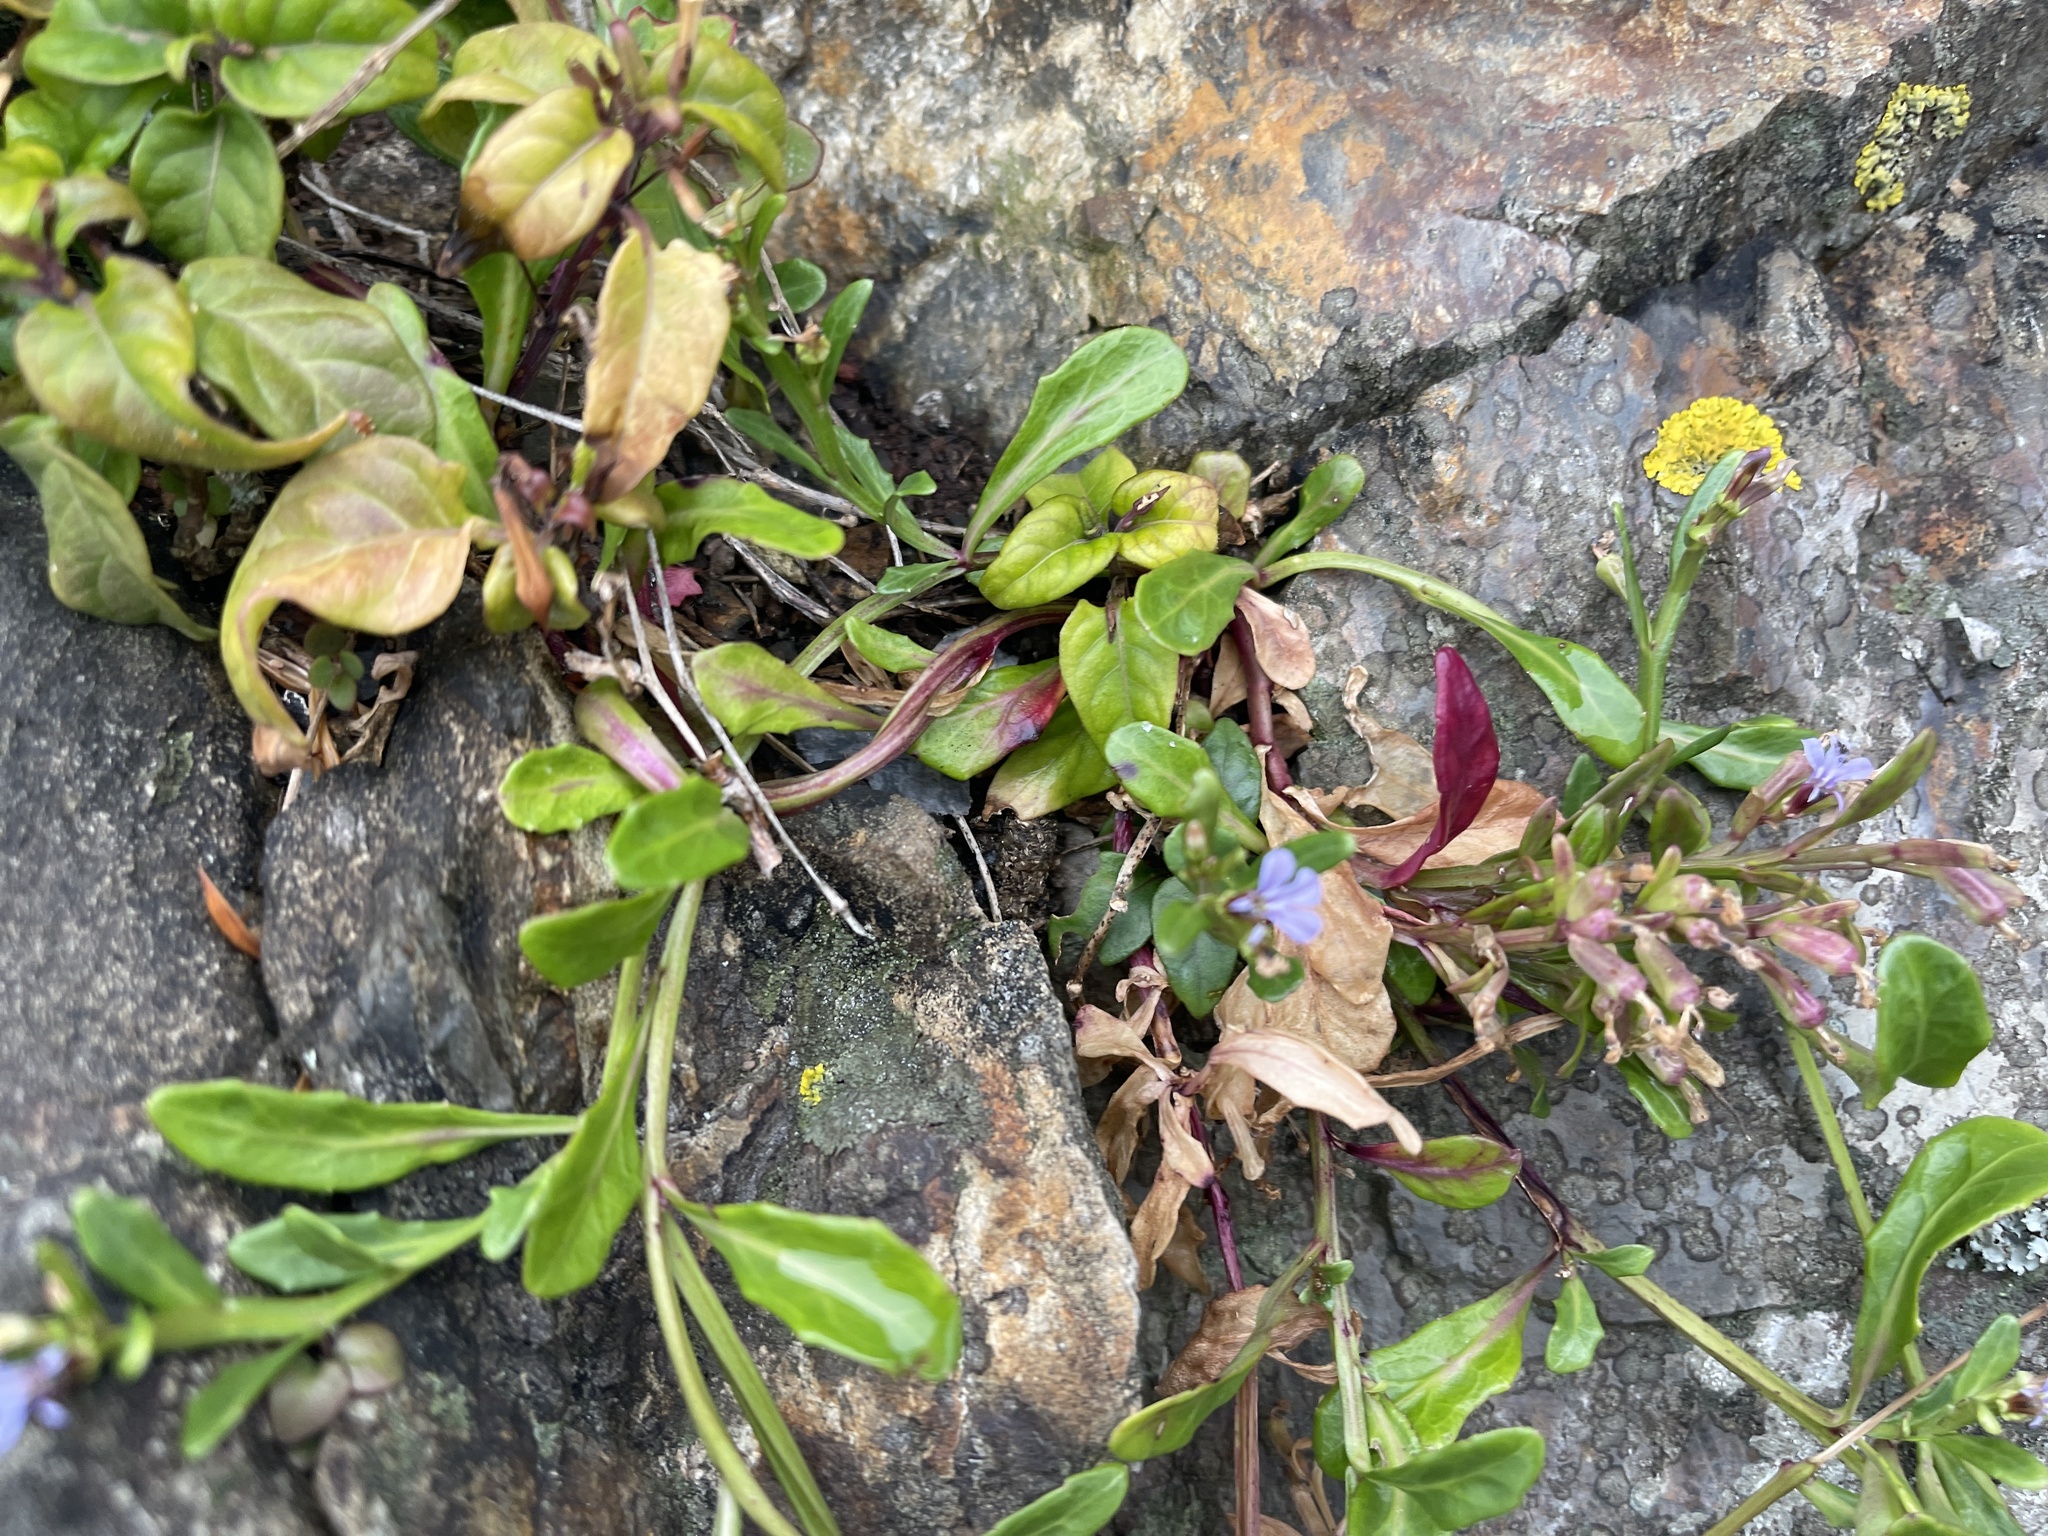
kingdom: Plantae
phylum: Tracheophyta
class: Magnoliopsida
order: Asterales
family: Campanulaceae
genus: Lobelia
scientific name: Lobelia anceps
